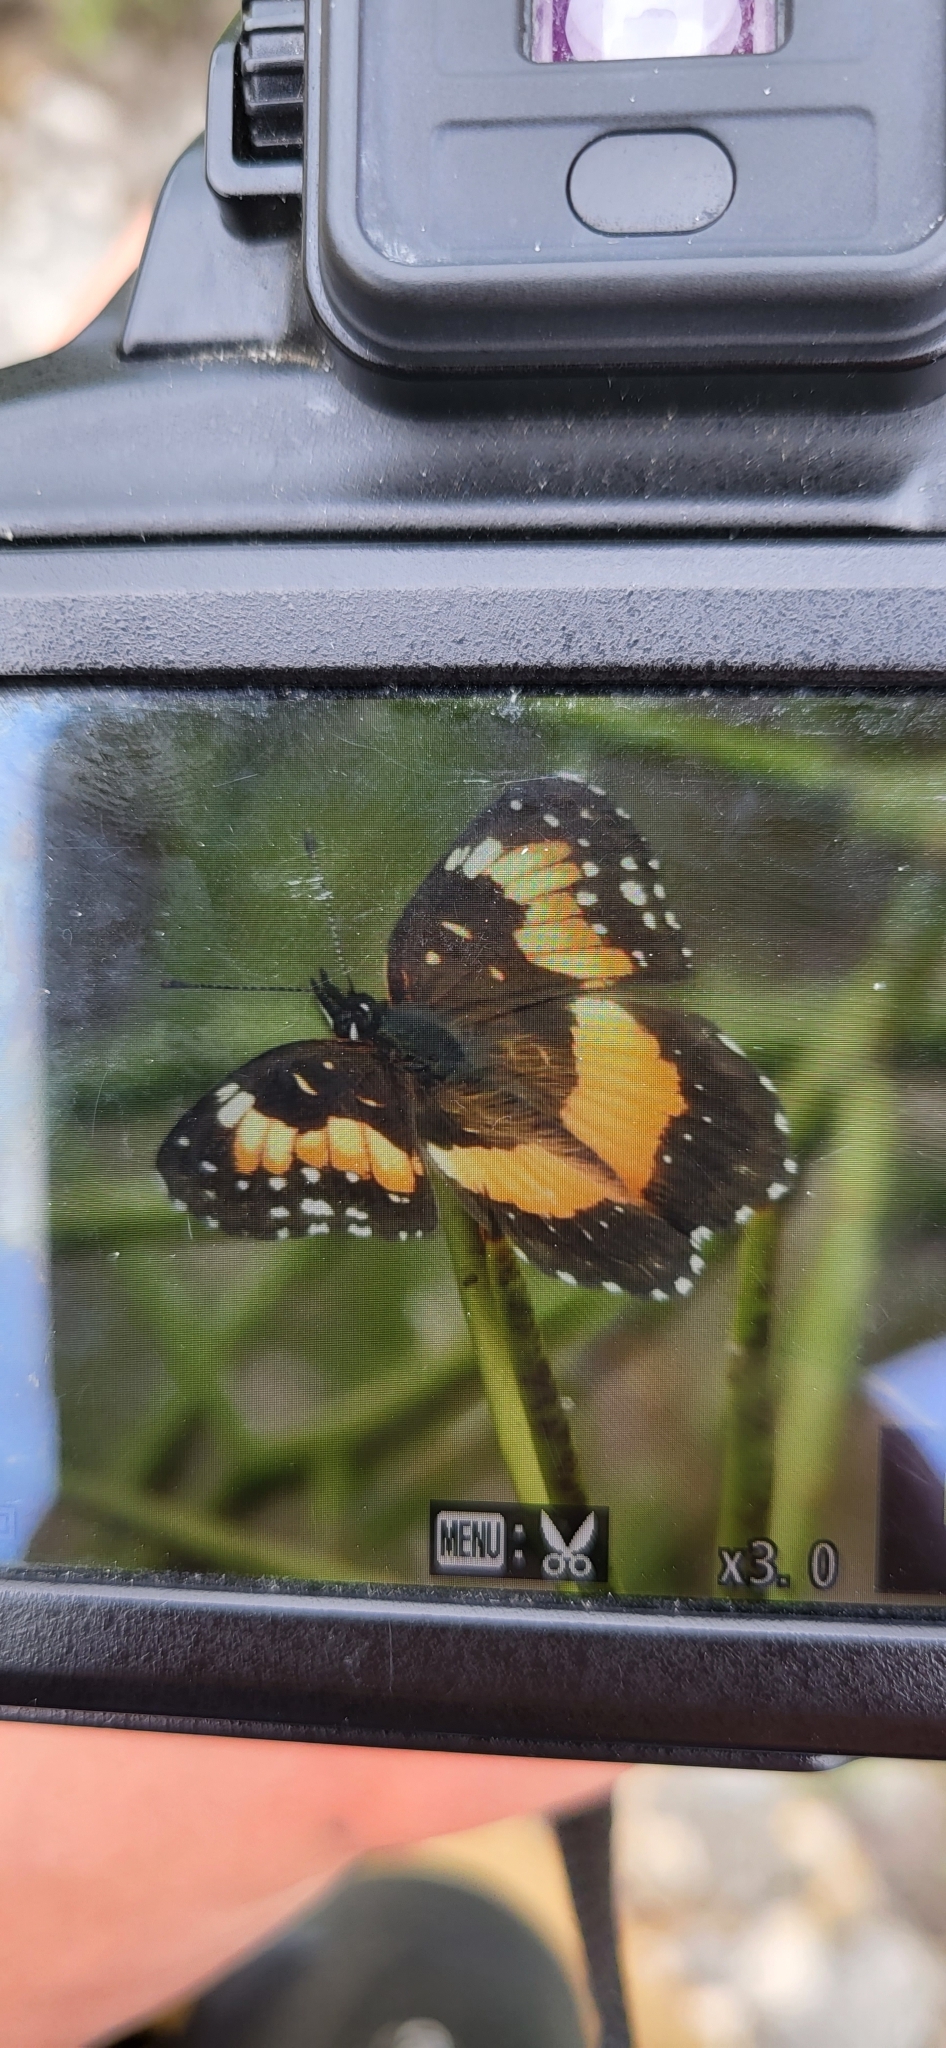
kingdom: Animalia
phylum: Arthropoda
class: Insecta
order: Lepidoptera
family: Nymphalidae
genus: Chlosyne
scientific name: Chlosyne lacinia
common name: Bordered patch
